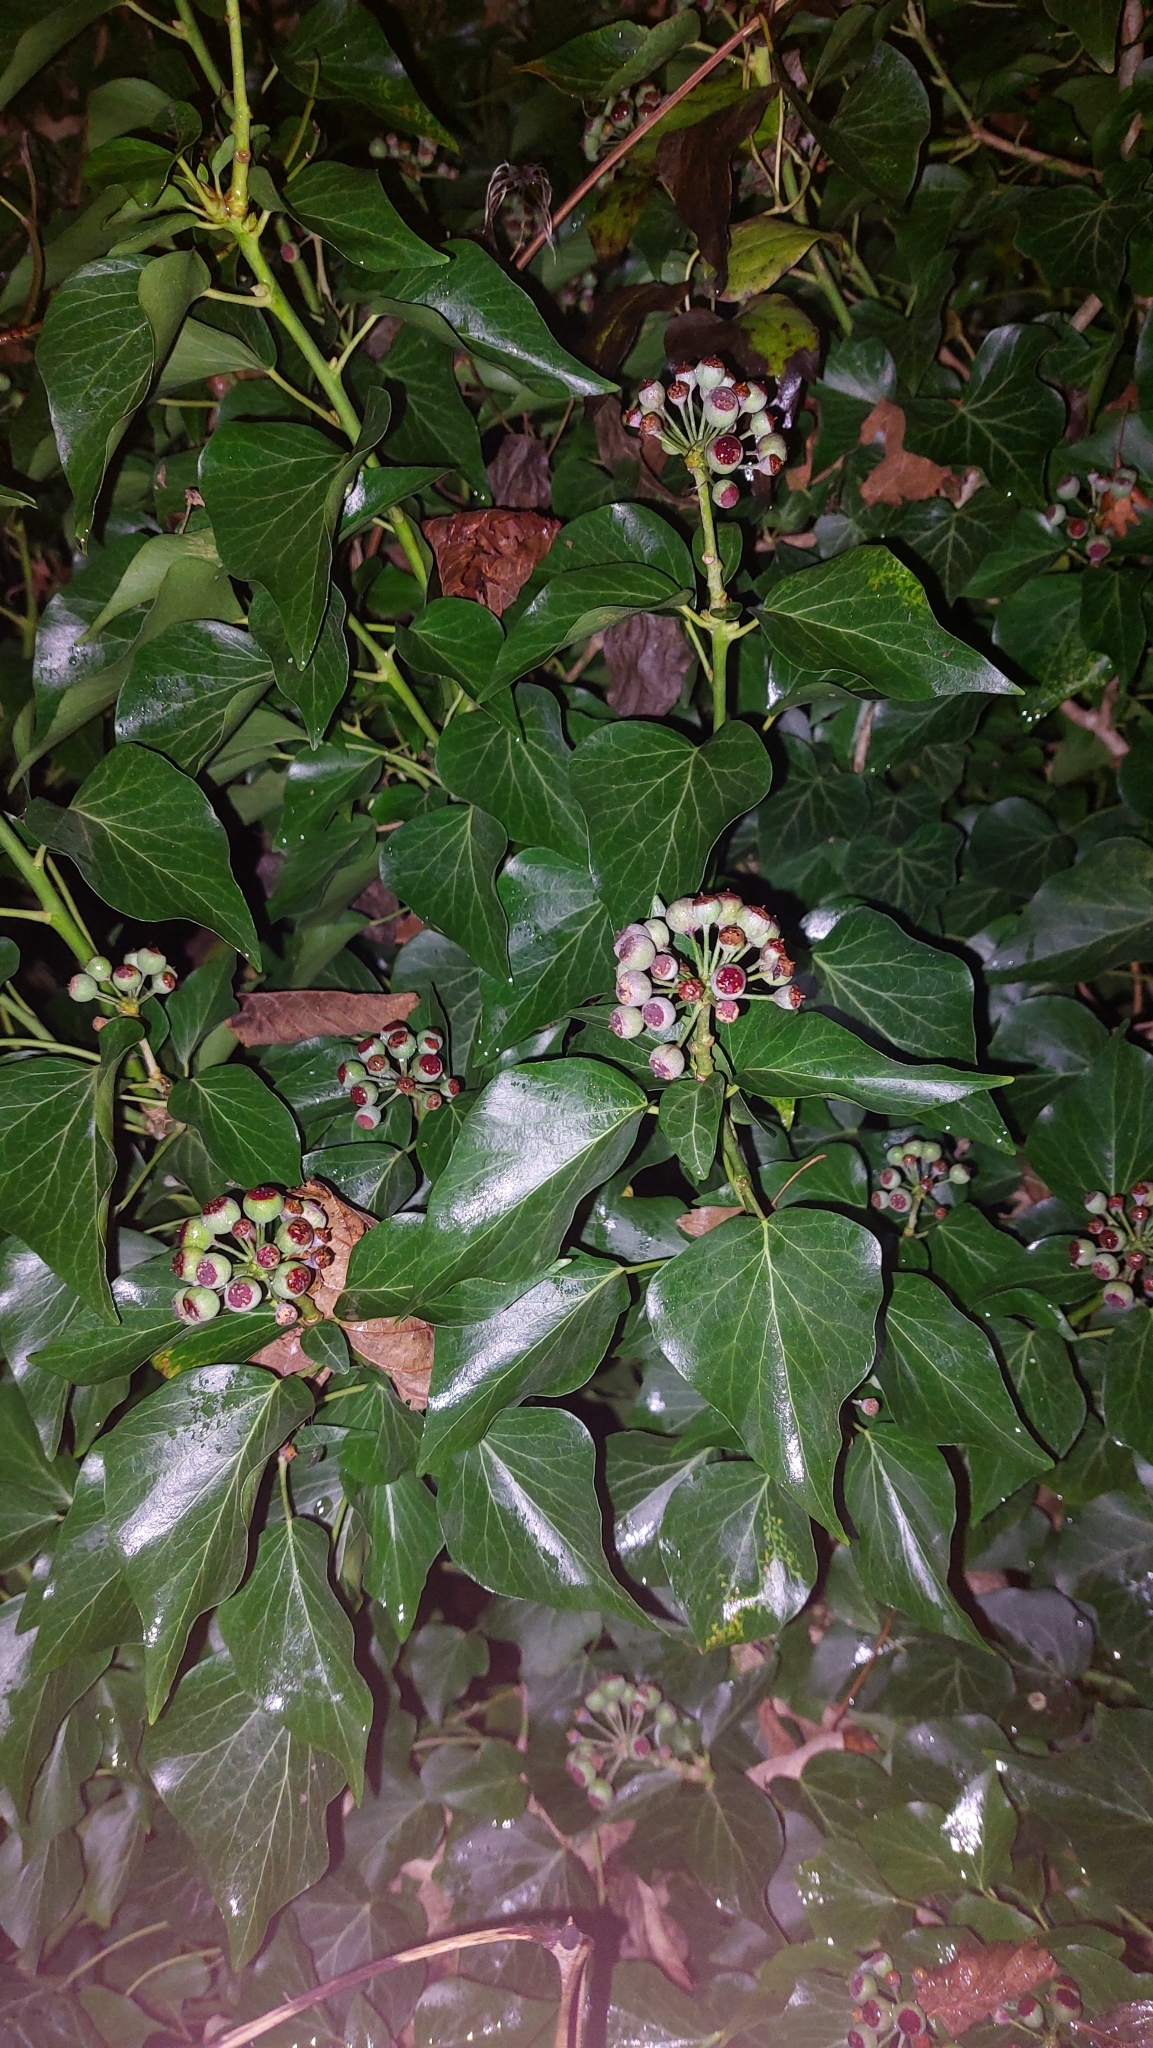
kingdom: Plantae
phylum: Tracheophyta
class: Magnoliopsida
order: Apiales
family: Araliaceae
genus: Hedera
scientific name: Hedera helix
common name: Ivy
